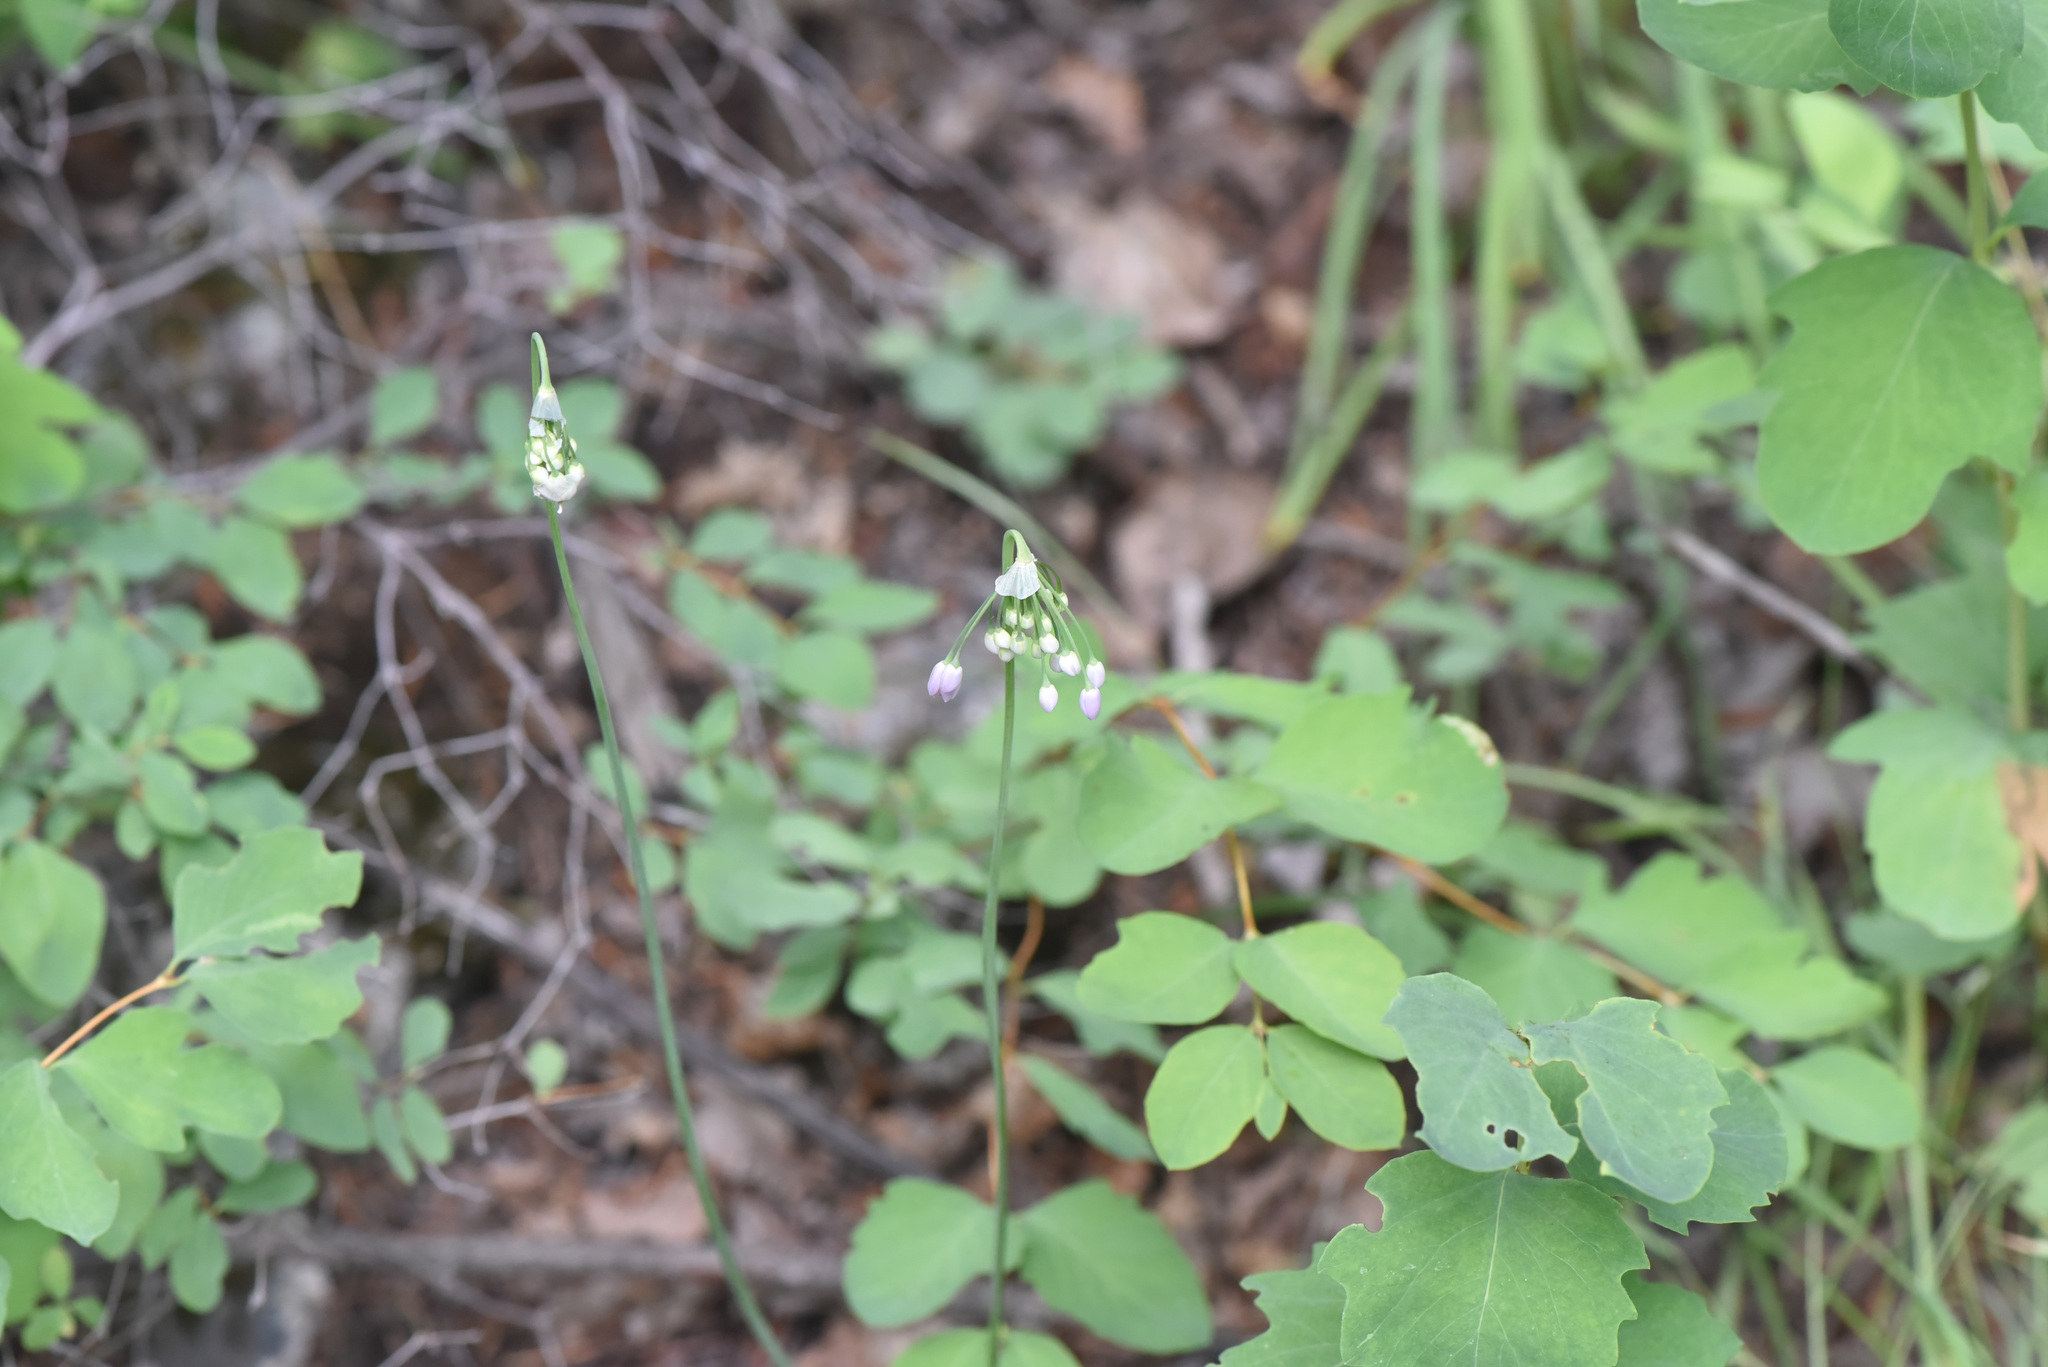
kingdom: Plantae
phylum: Tracheophyta
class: Liliopsida
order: Asparagales
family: Amaryllidaceae
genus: Allium
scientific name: Allium cernuum
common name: Nodding onion
